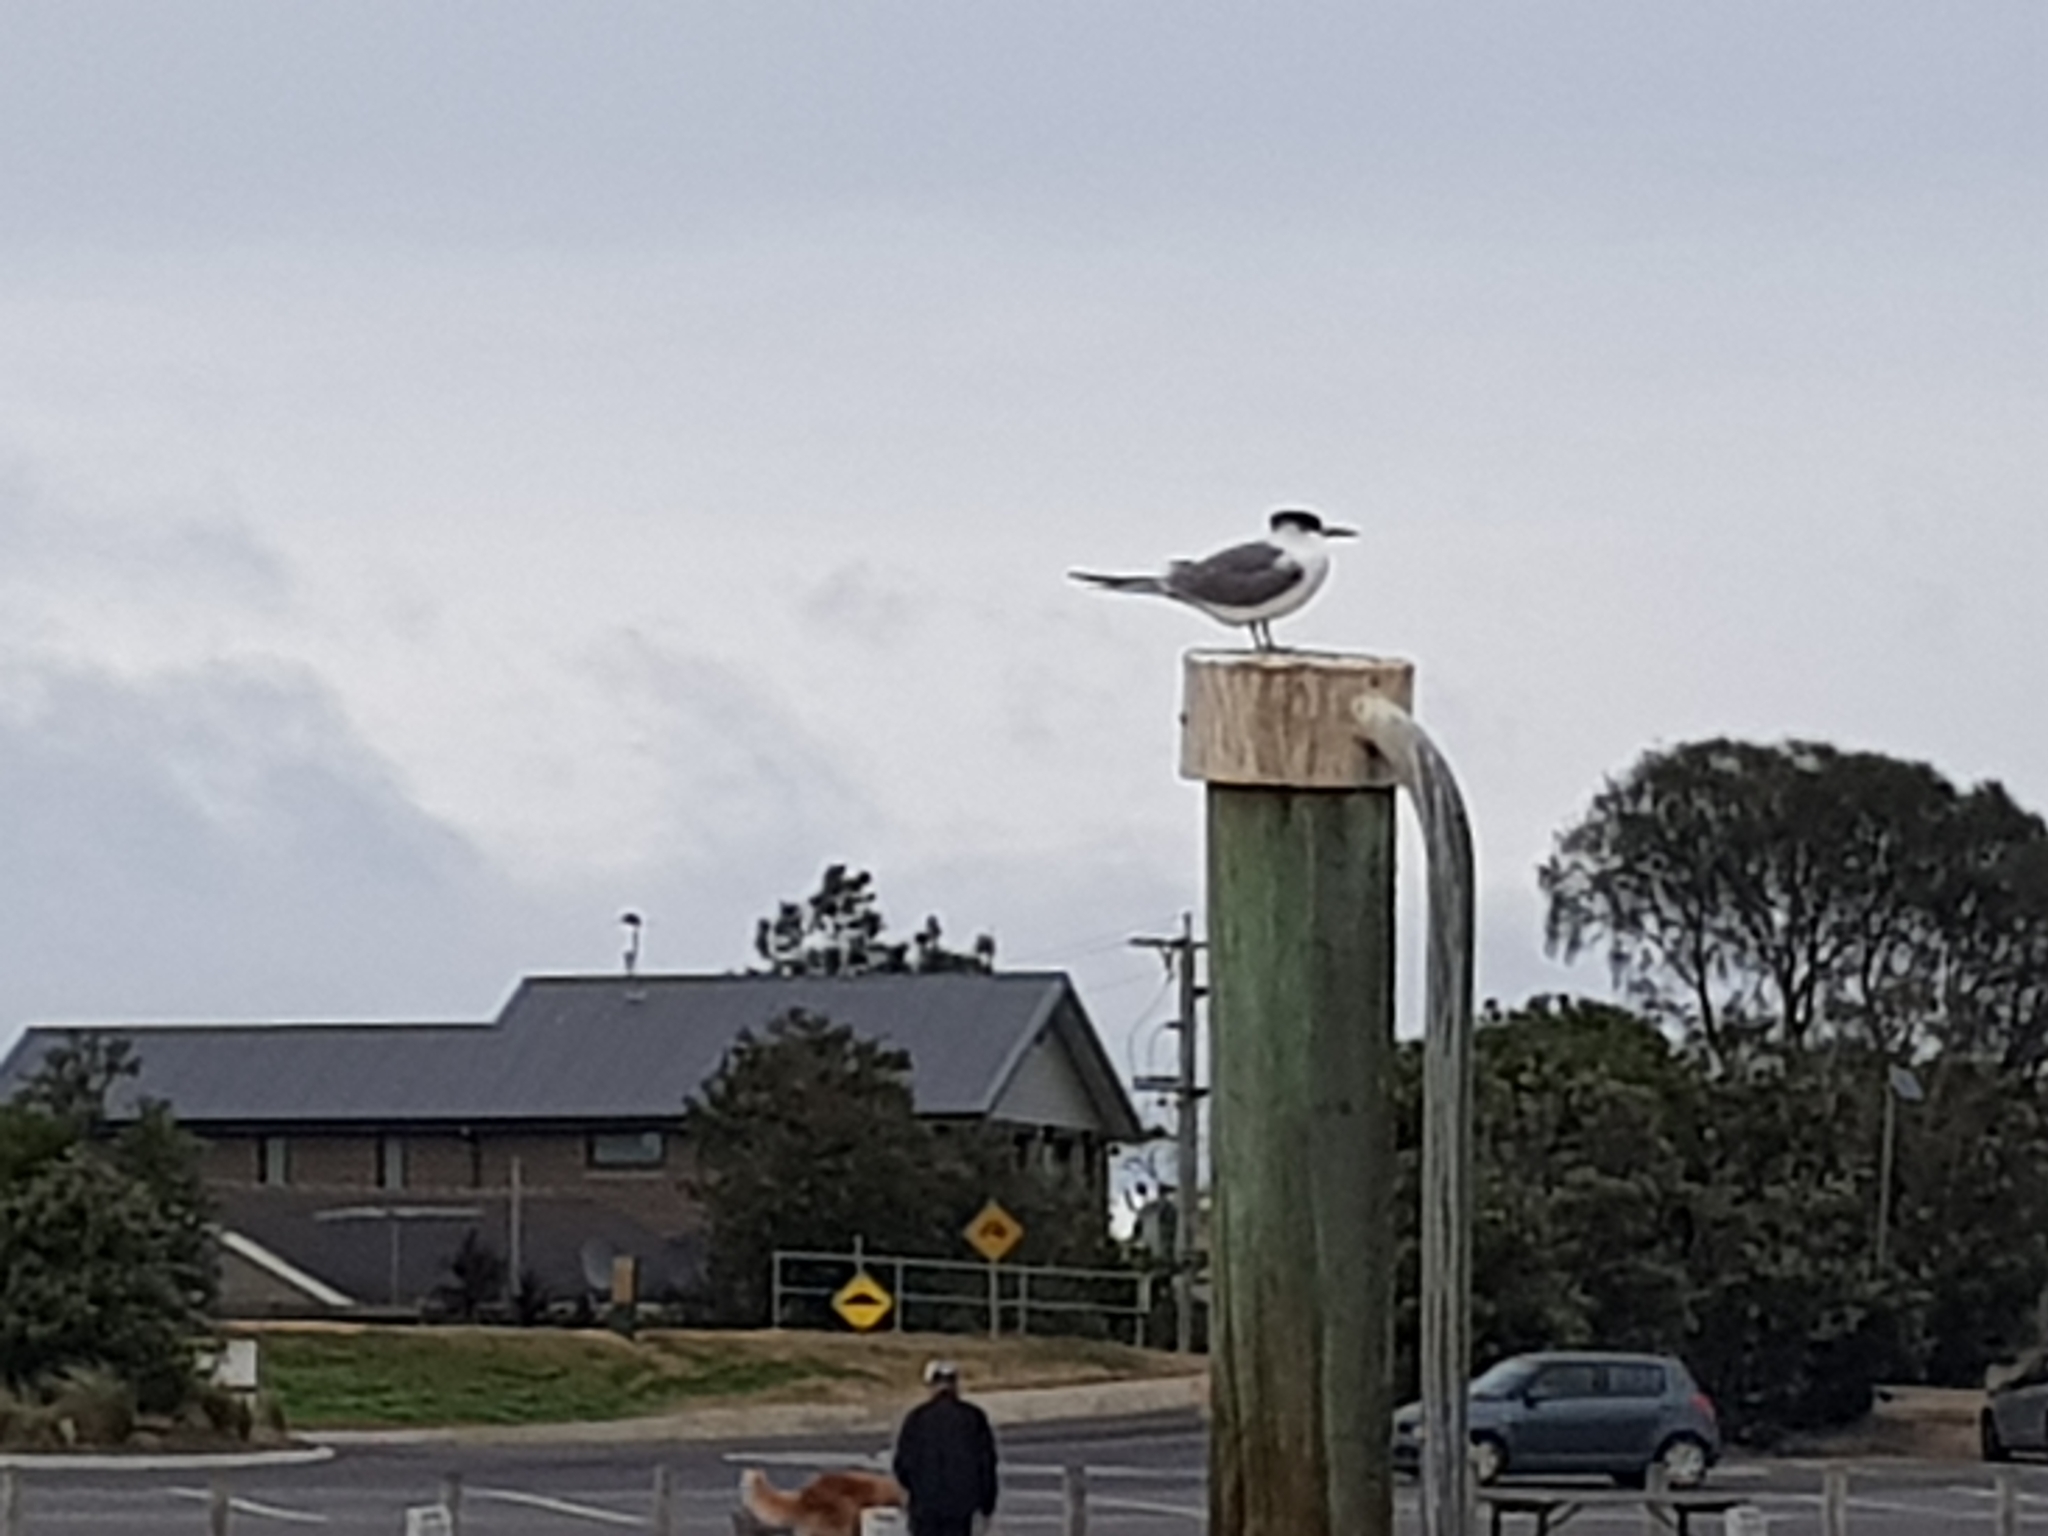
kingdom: Animalia
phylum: Chordata
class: Aves
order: Charadriiformes
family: Laridae
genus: Thalasseus
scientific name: Thalasseus bergii
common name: Greater crested tern
